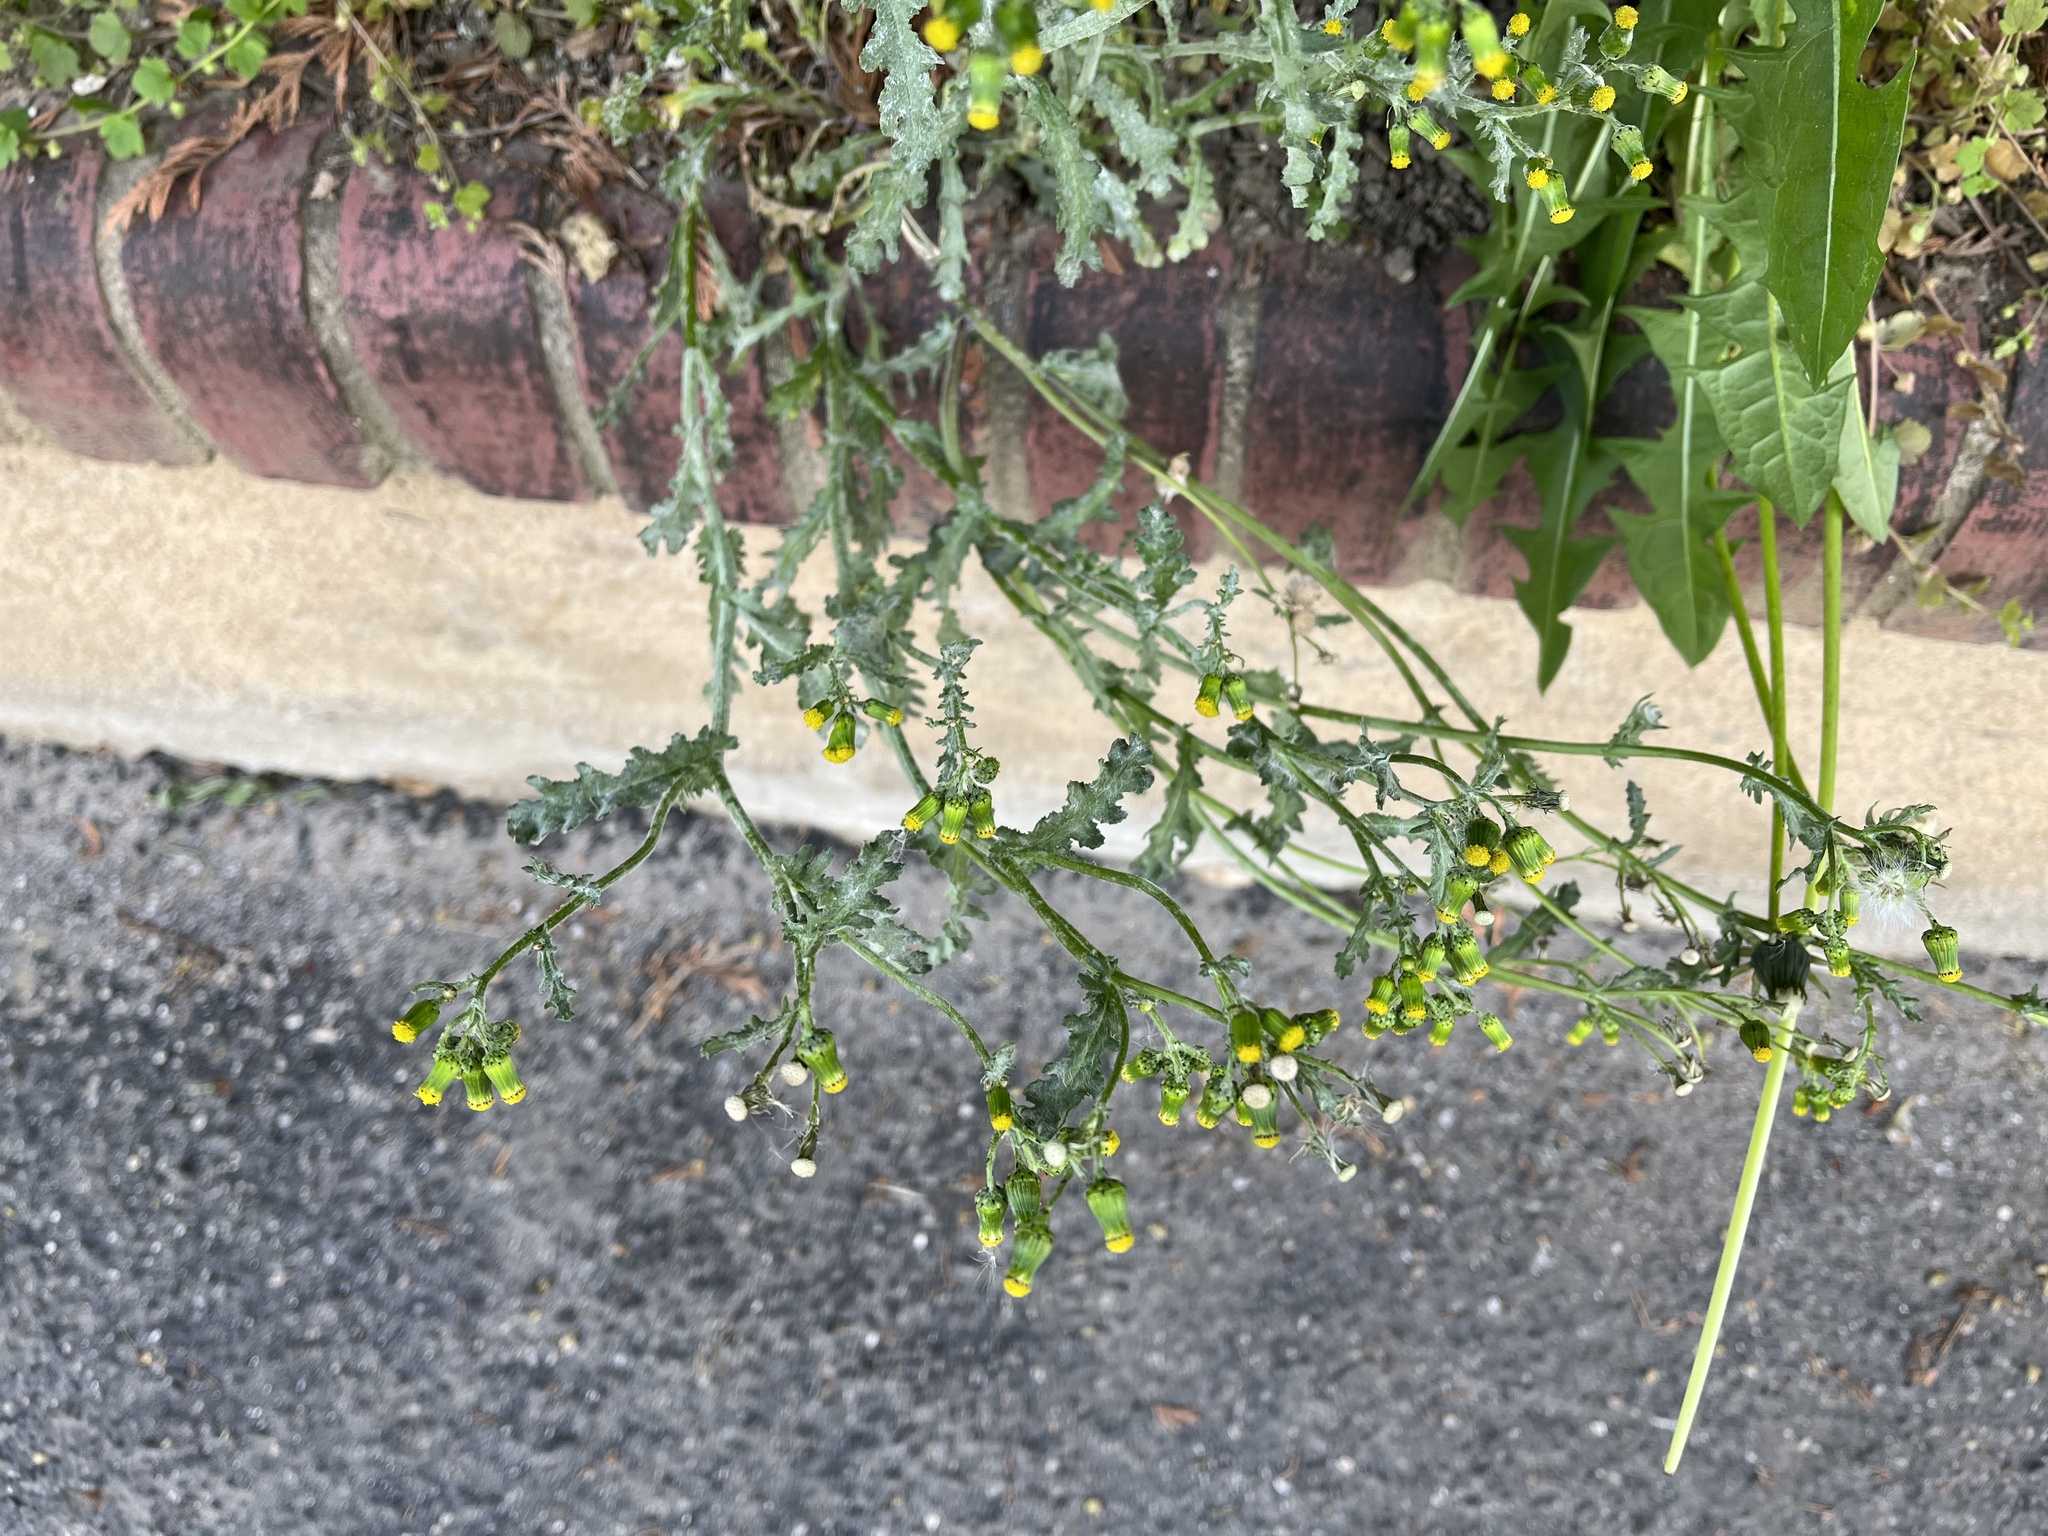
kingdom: Plantae
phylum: Tracheophyta
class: Magnoliopsida
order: Asterales
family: Asteraceae
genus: Senecio
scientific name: Senecio vulgaris
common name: Old-man-in-the-spring
